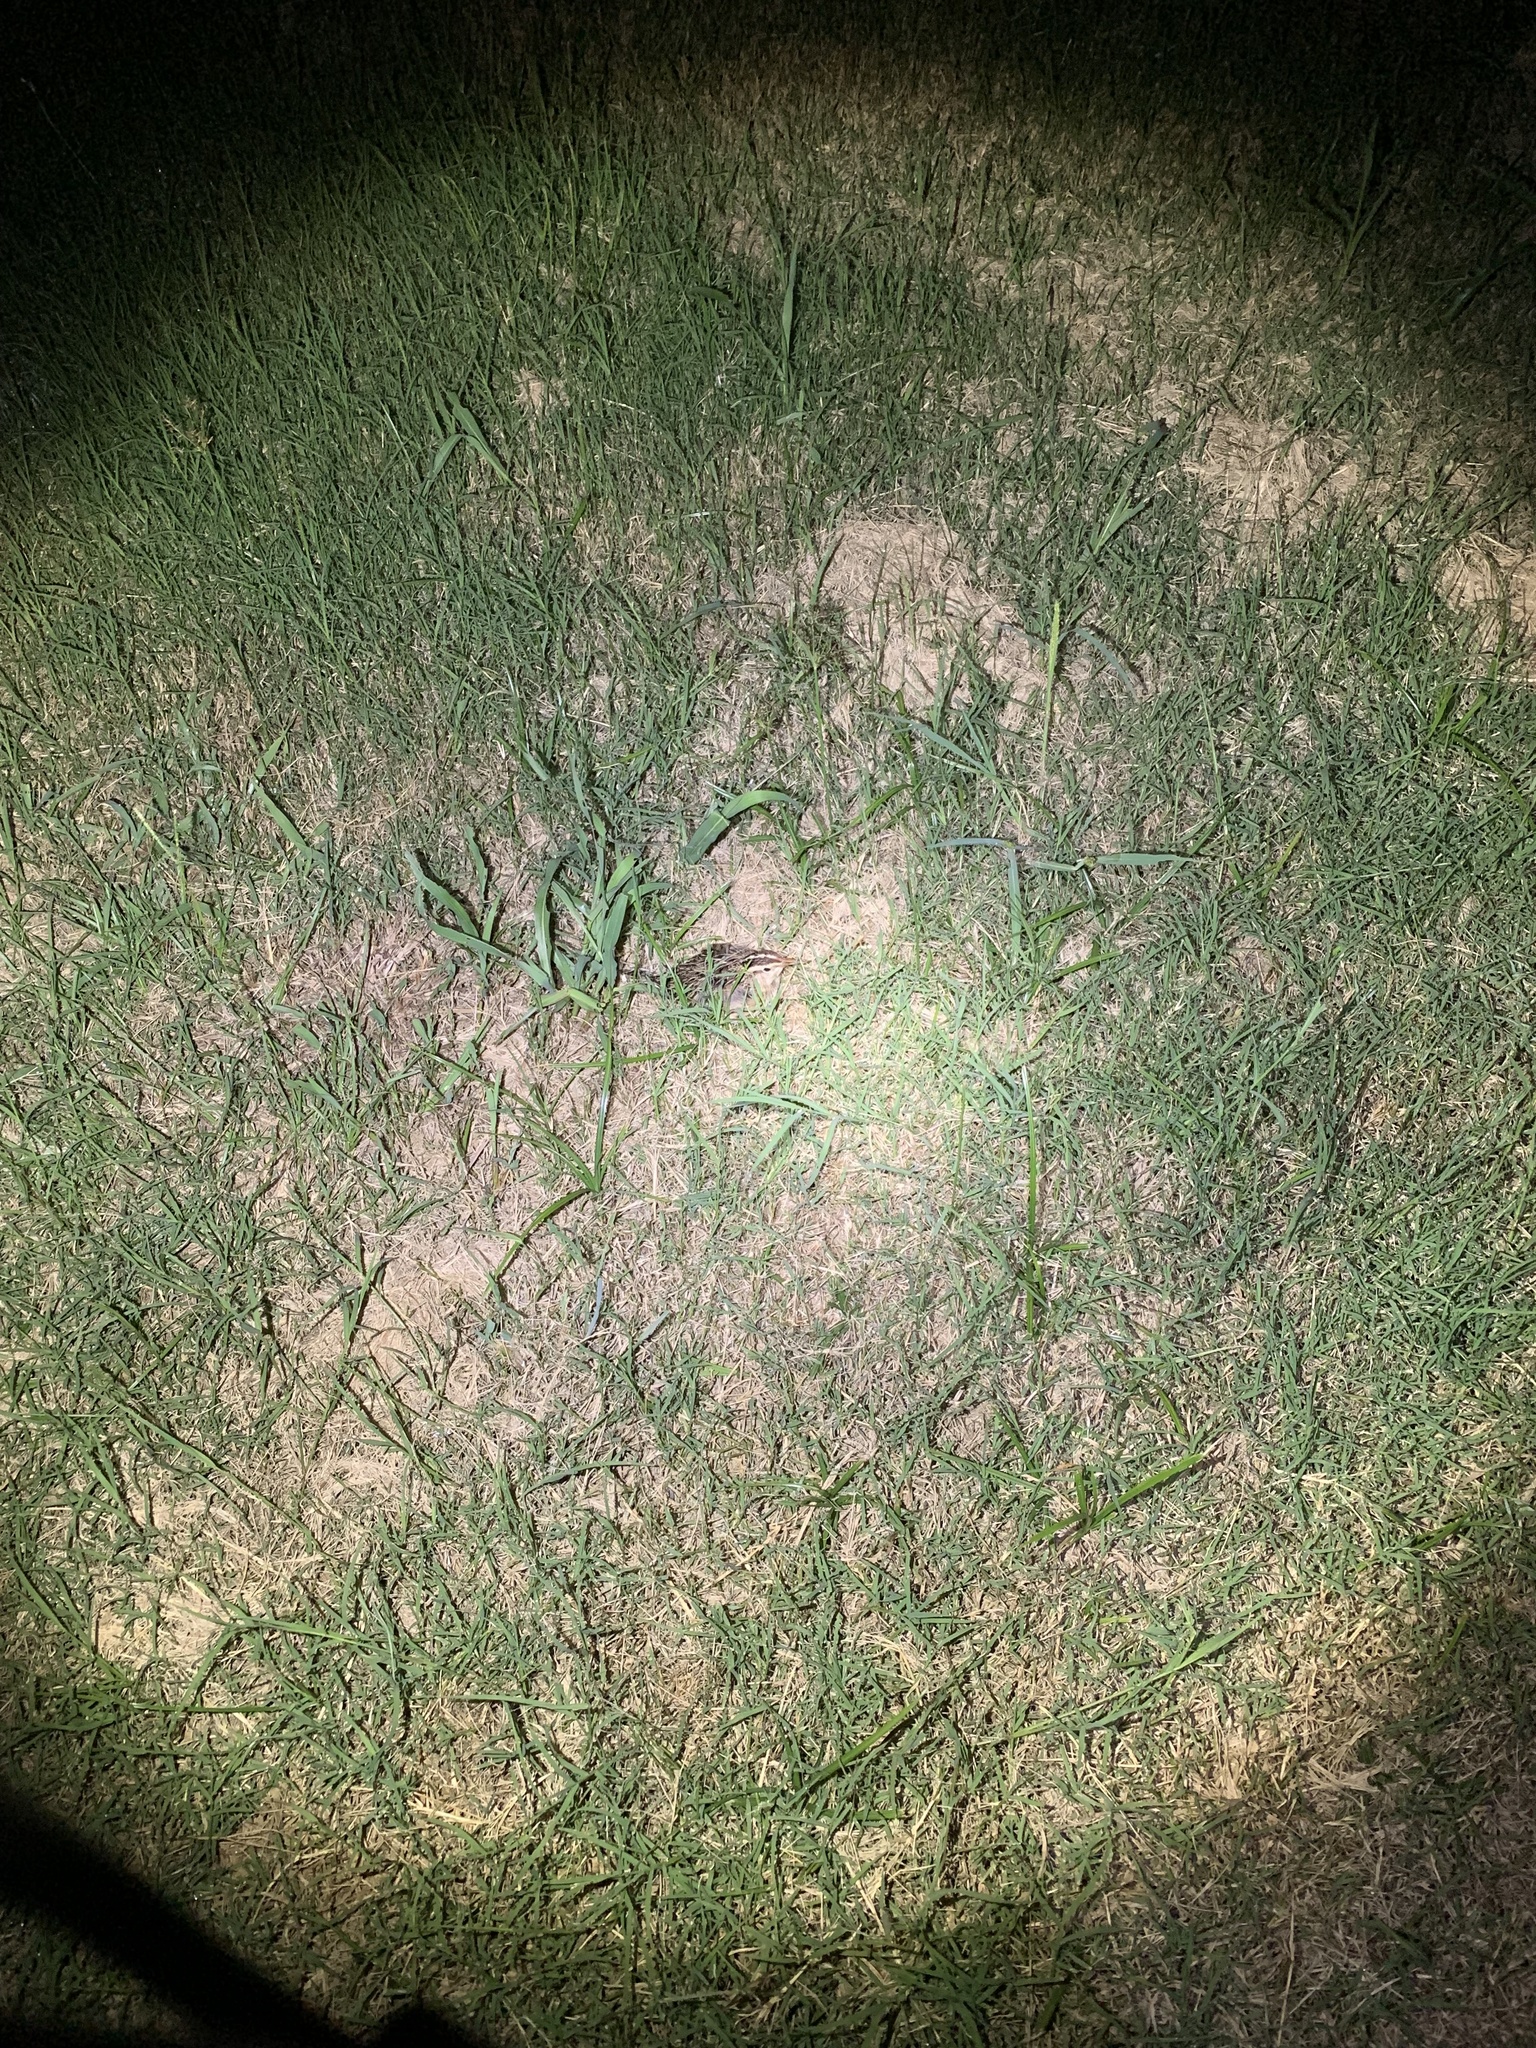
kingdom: Animalia
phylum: Chordata
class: Aves
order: Passeriformes
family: Icteridae
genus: Sturnella
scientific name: Sturnella magna
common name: Eastern meadowlark
